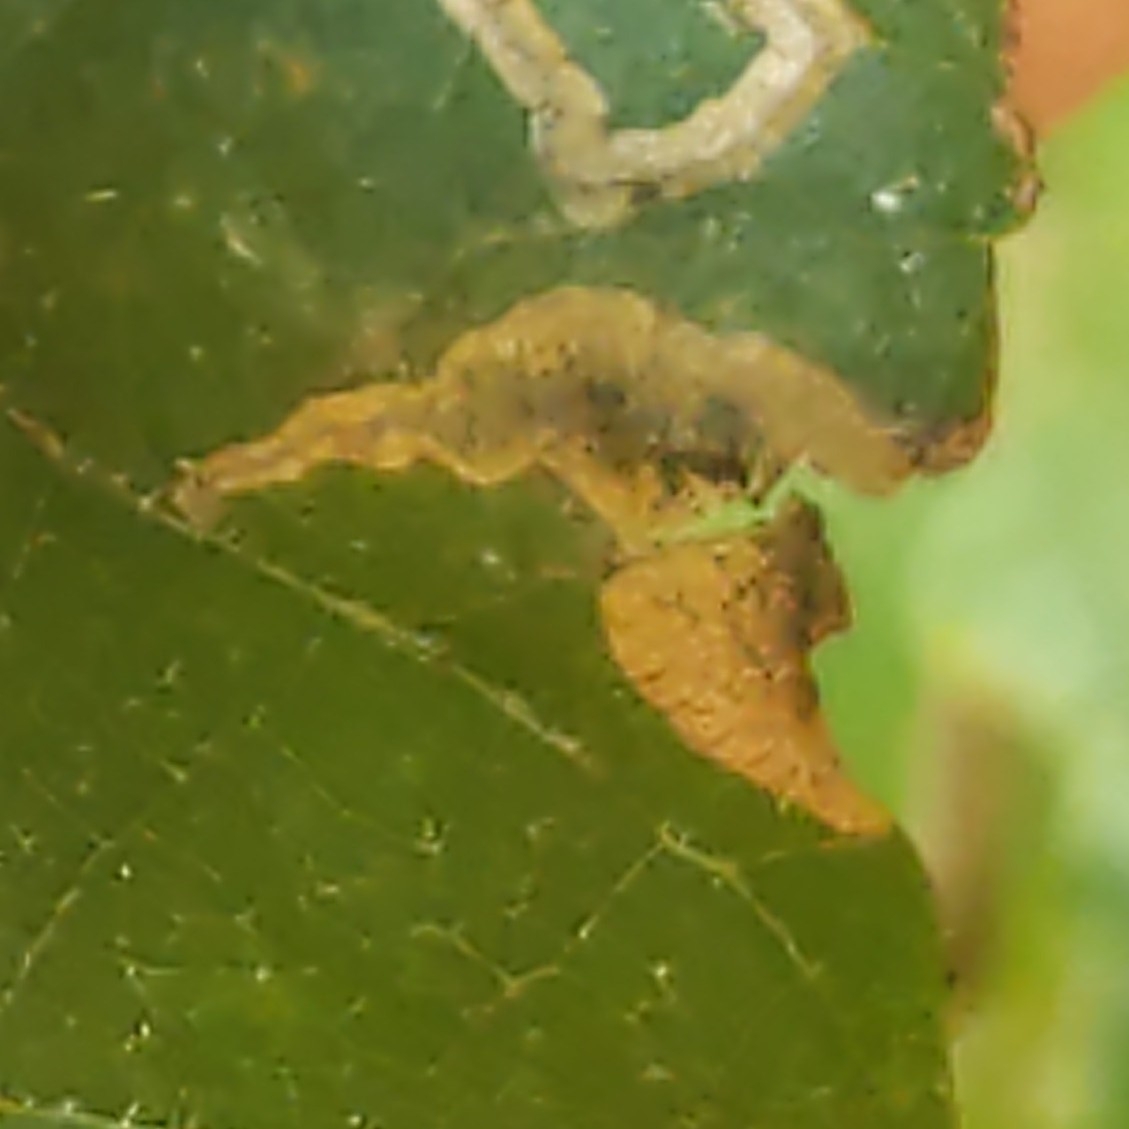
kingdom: Animalia
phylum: Arthropoda
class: Insecta
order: Lepidoptera
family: Gracillariidae
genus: Cameraria
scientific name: Cameraria caryaefoliella
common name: Pecan leafminer moth
